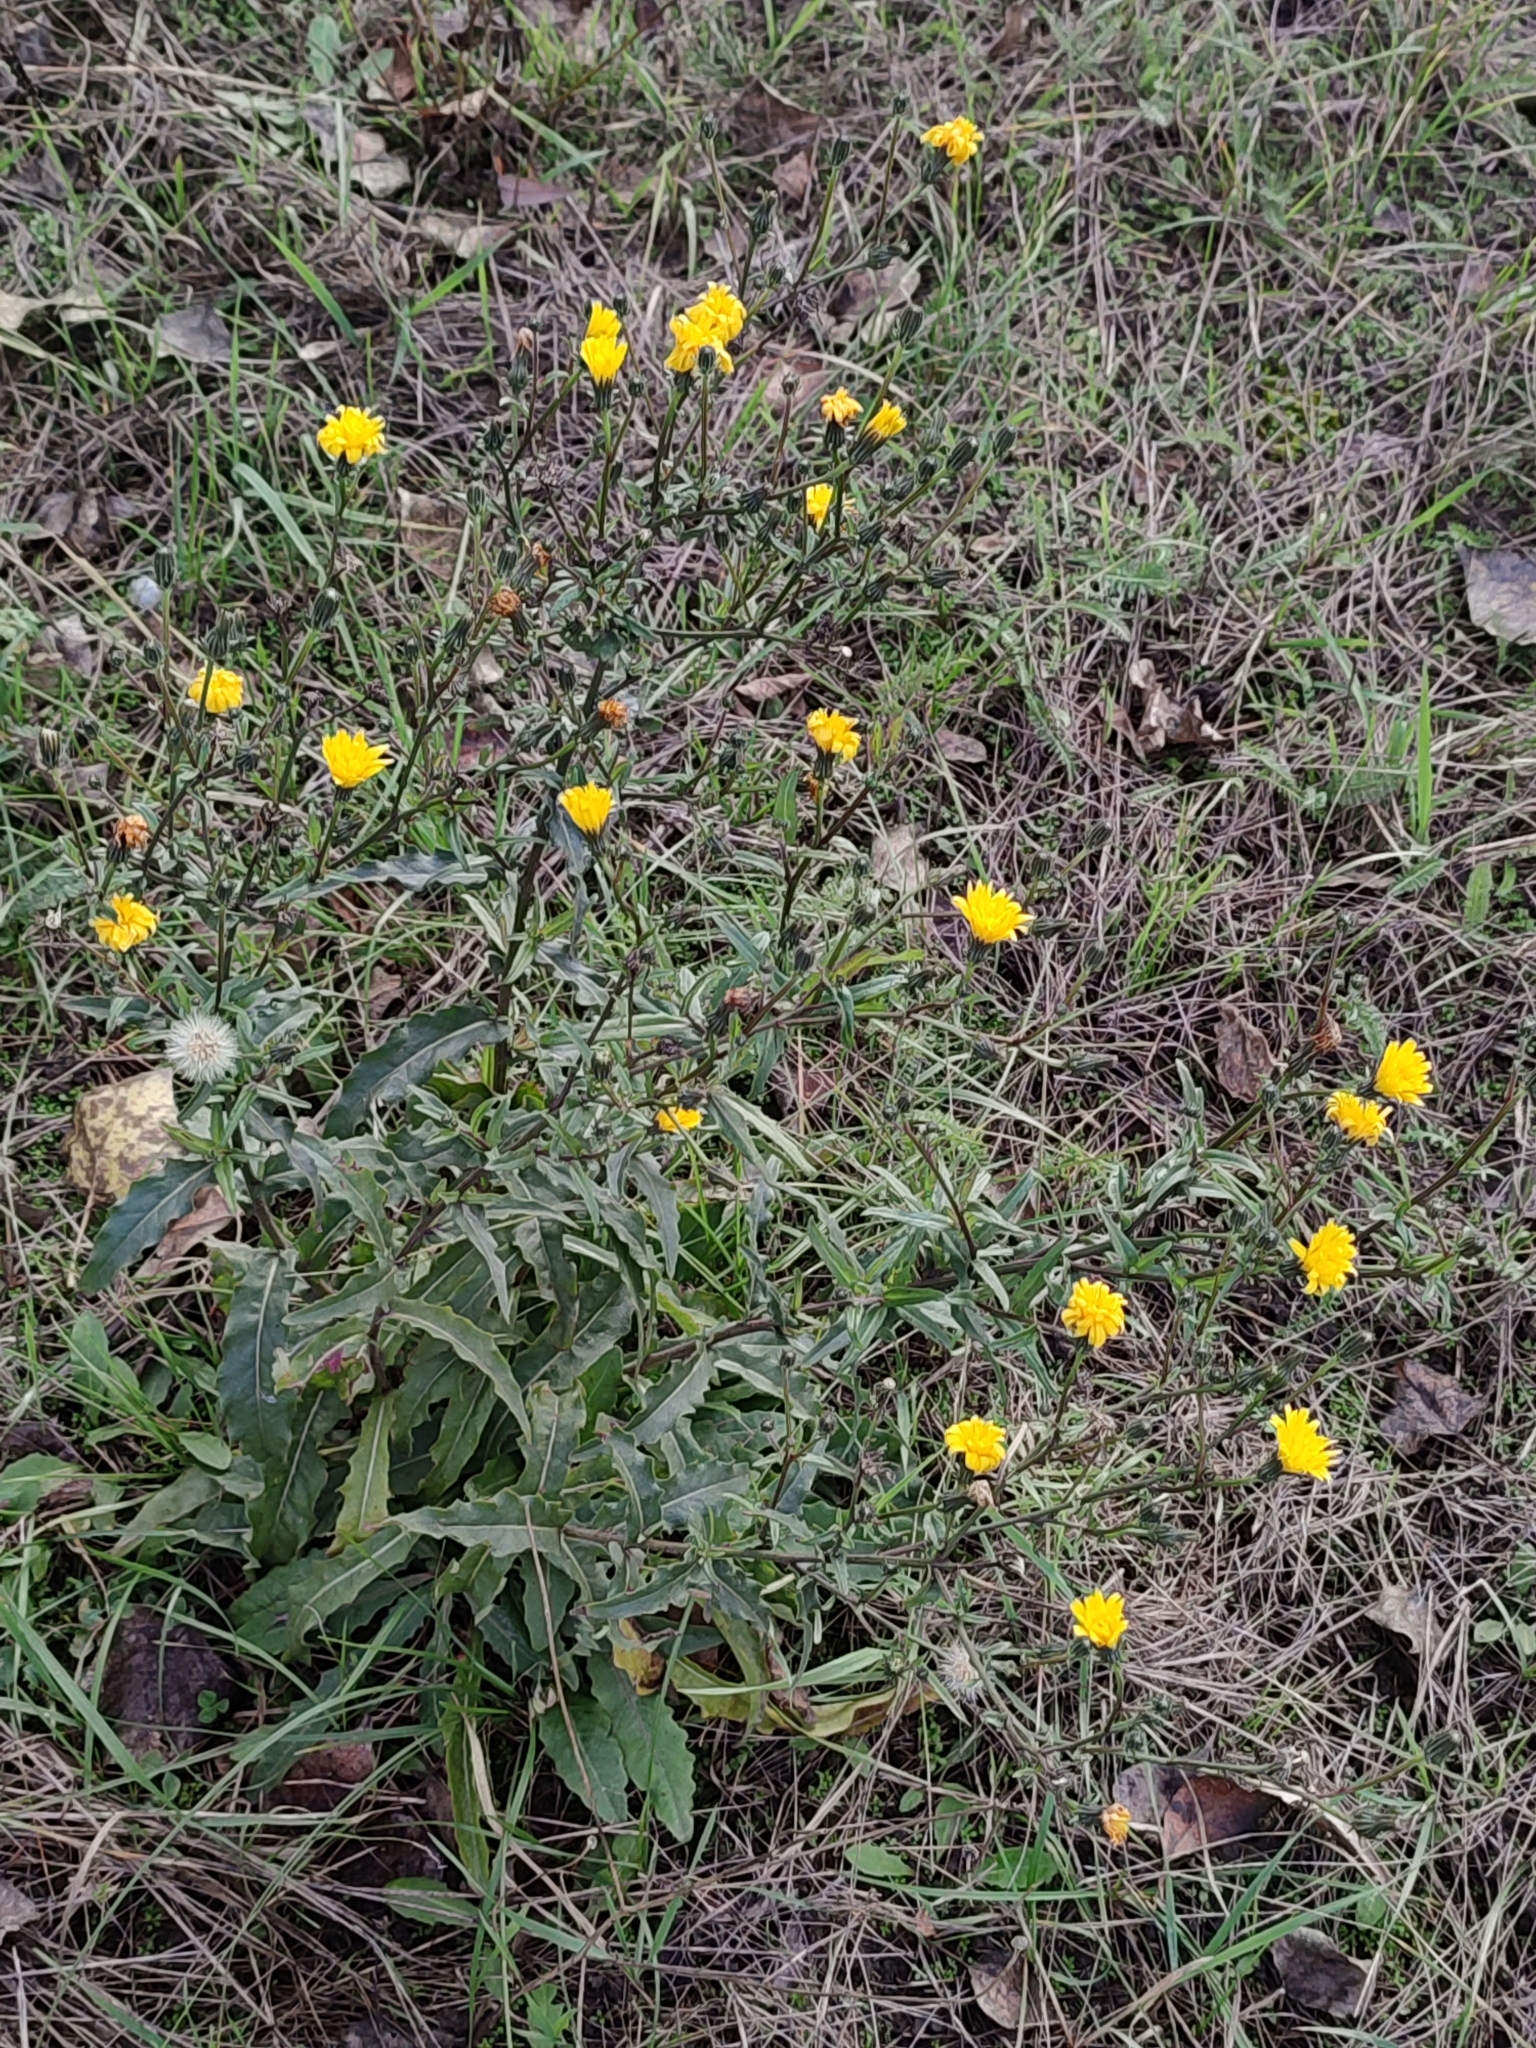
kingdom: Plantae
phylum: Tracheophyta
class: Magnoliopsida
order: Asterales
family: Asteraceae
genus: Picris
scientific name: Picris hieracioides
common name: Hawkweed oxtongue
